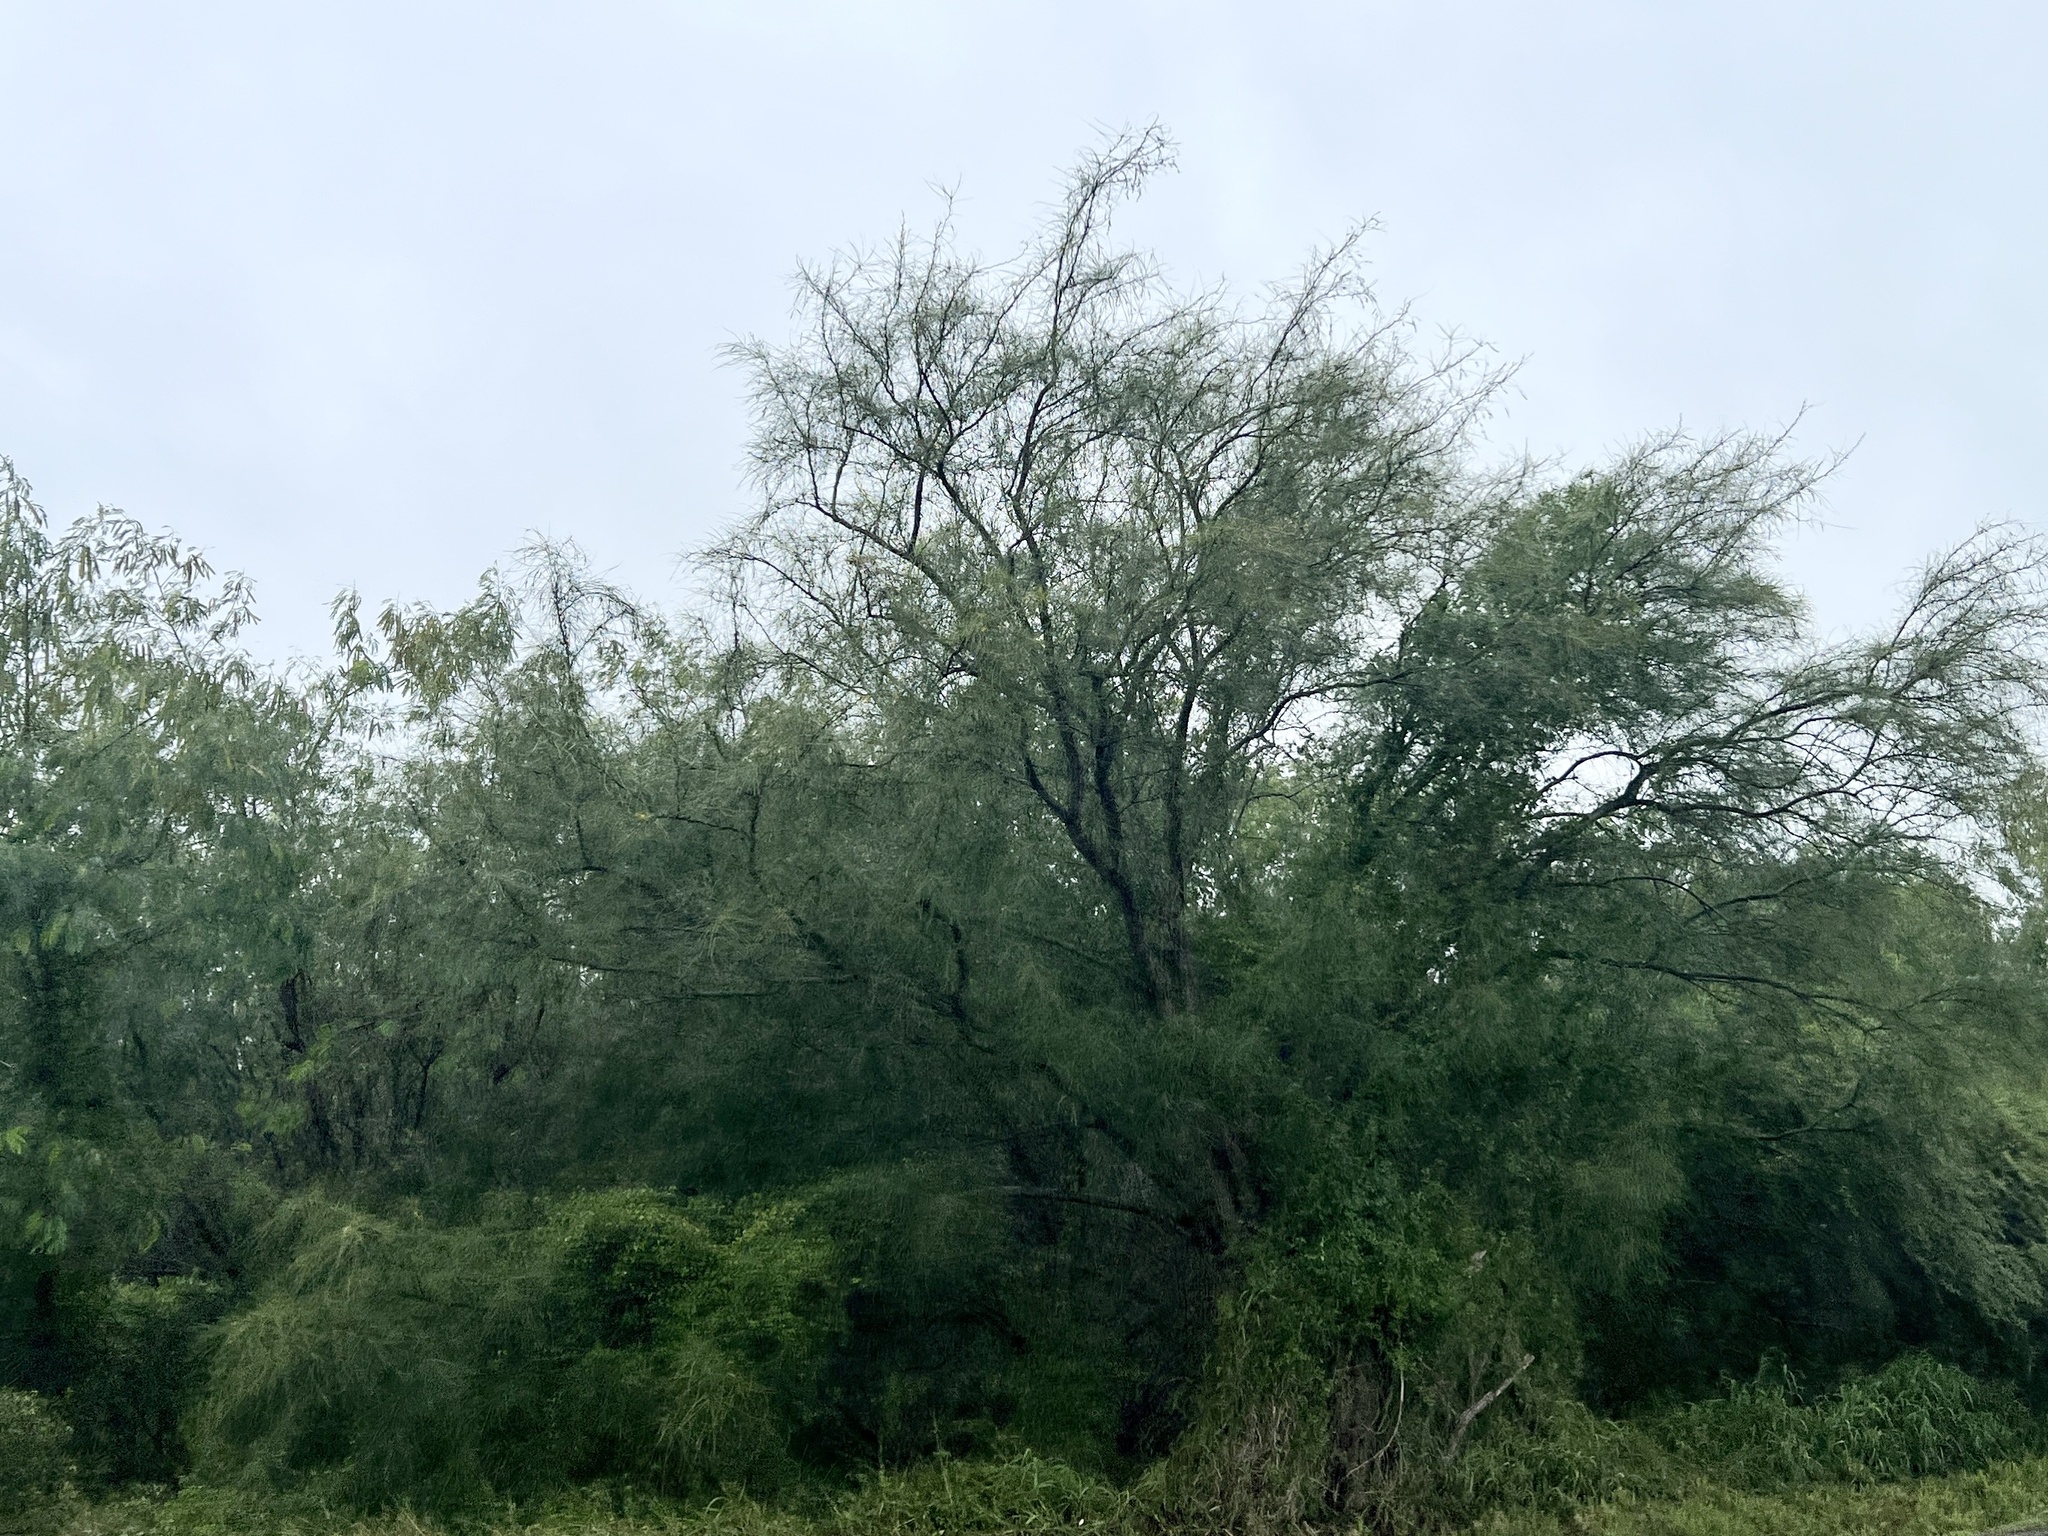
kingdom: Plantae
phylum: Tracheophyta
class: Magnoliopsida
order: Fabales
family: Fabaceae
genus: Parkinsonia
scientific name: Parkinsonia aculeata
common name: Jerusalem thorn
